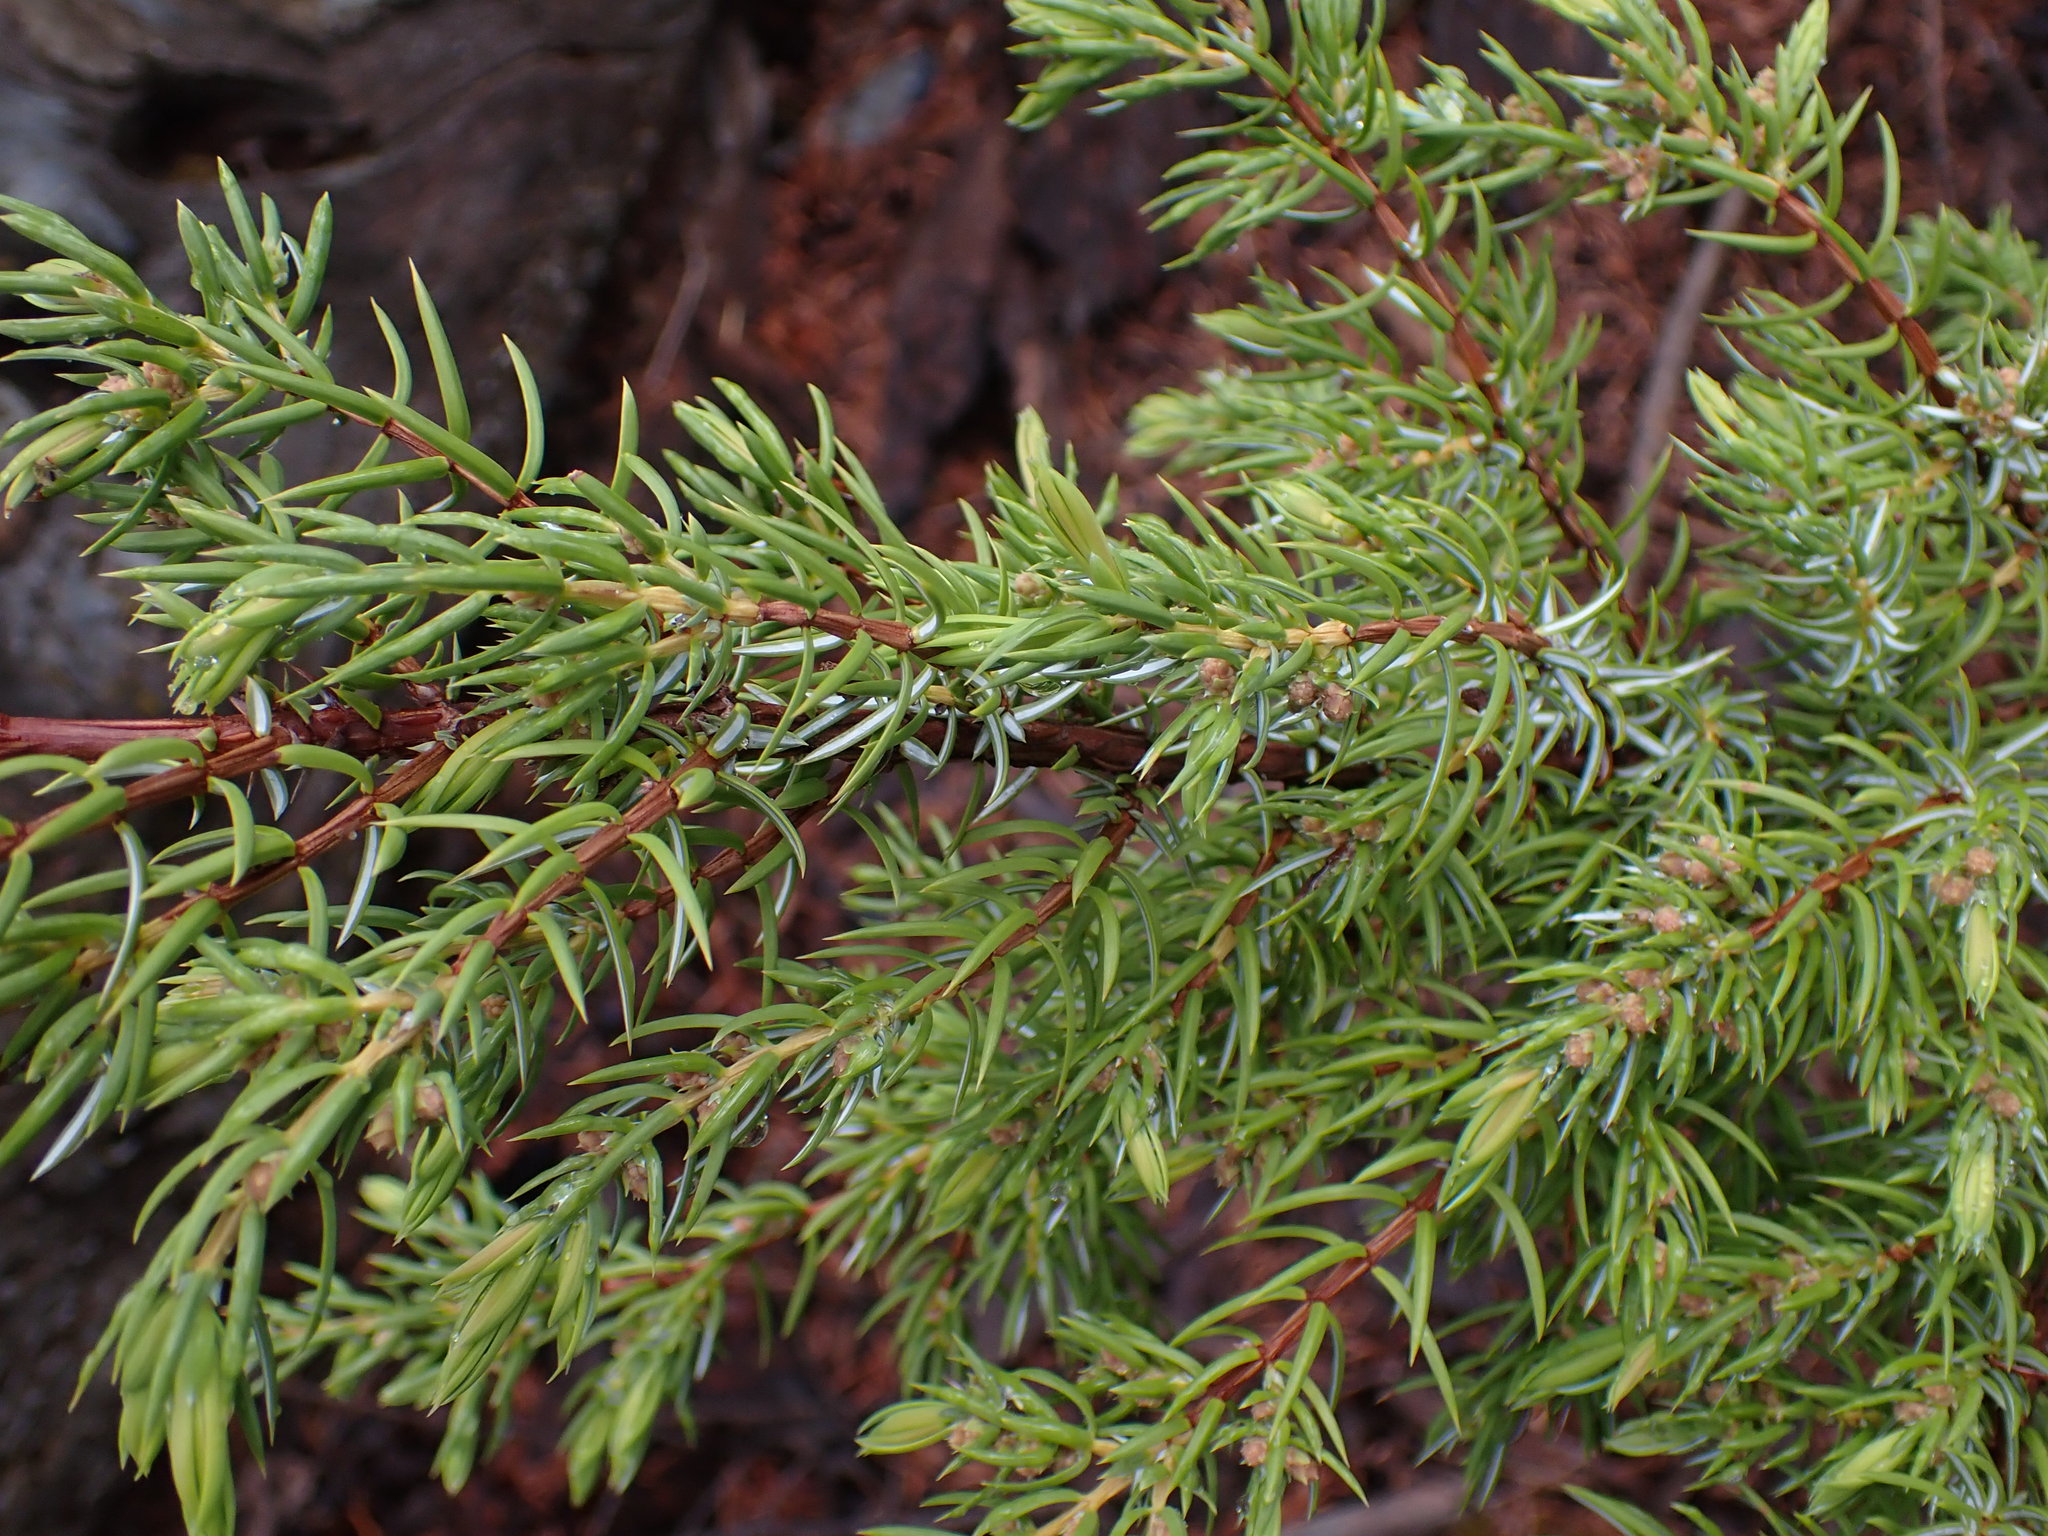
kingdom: Plantae
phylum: Tracheophyta
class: Pinopsida
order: Pinales
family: Cupressaceae
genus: Juniperus
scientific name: Juniperus communis
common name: Common juniper
